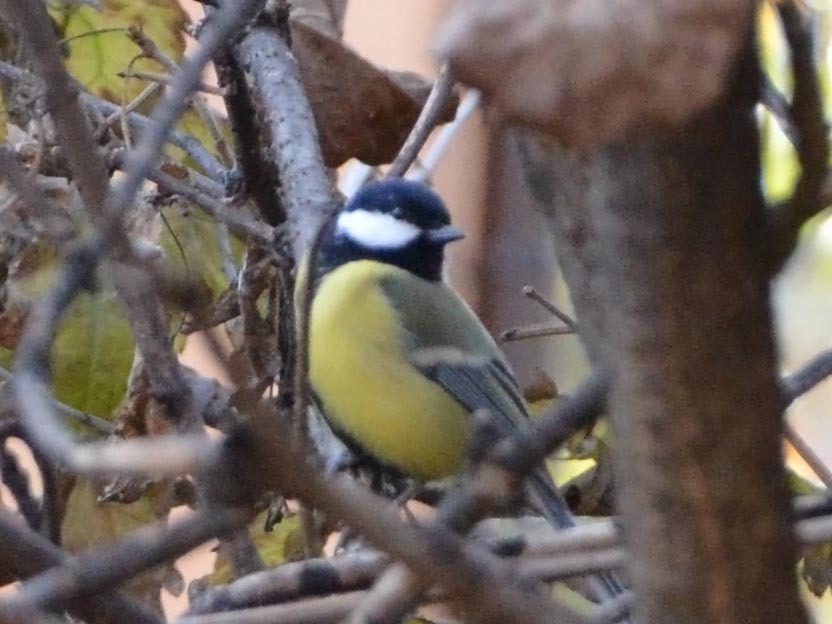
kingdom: Animalia
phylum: Chordata
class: Aves
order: Passeriformes
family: Paridae
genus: Parus
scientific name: Parus major
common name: Great tit
